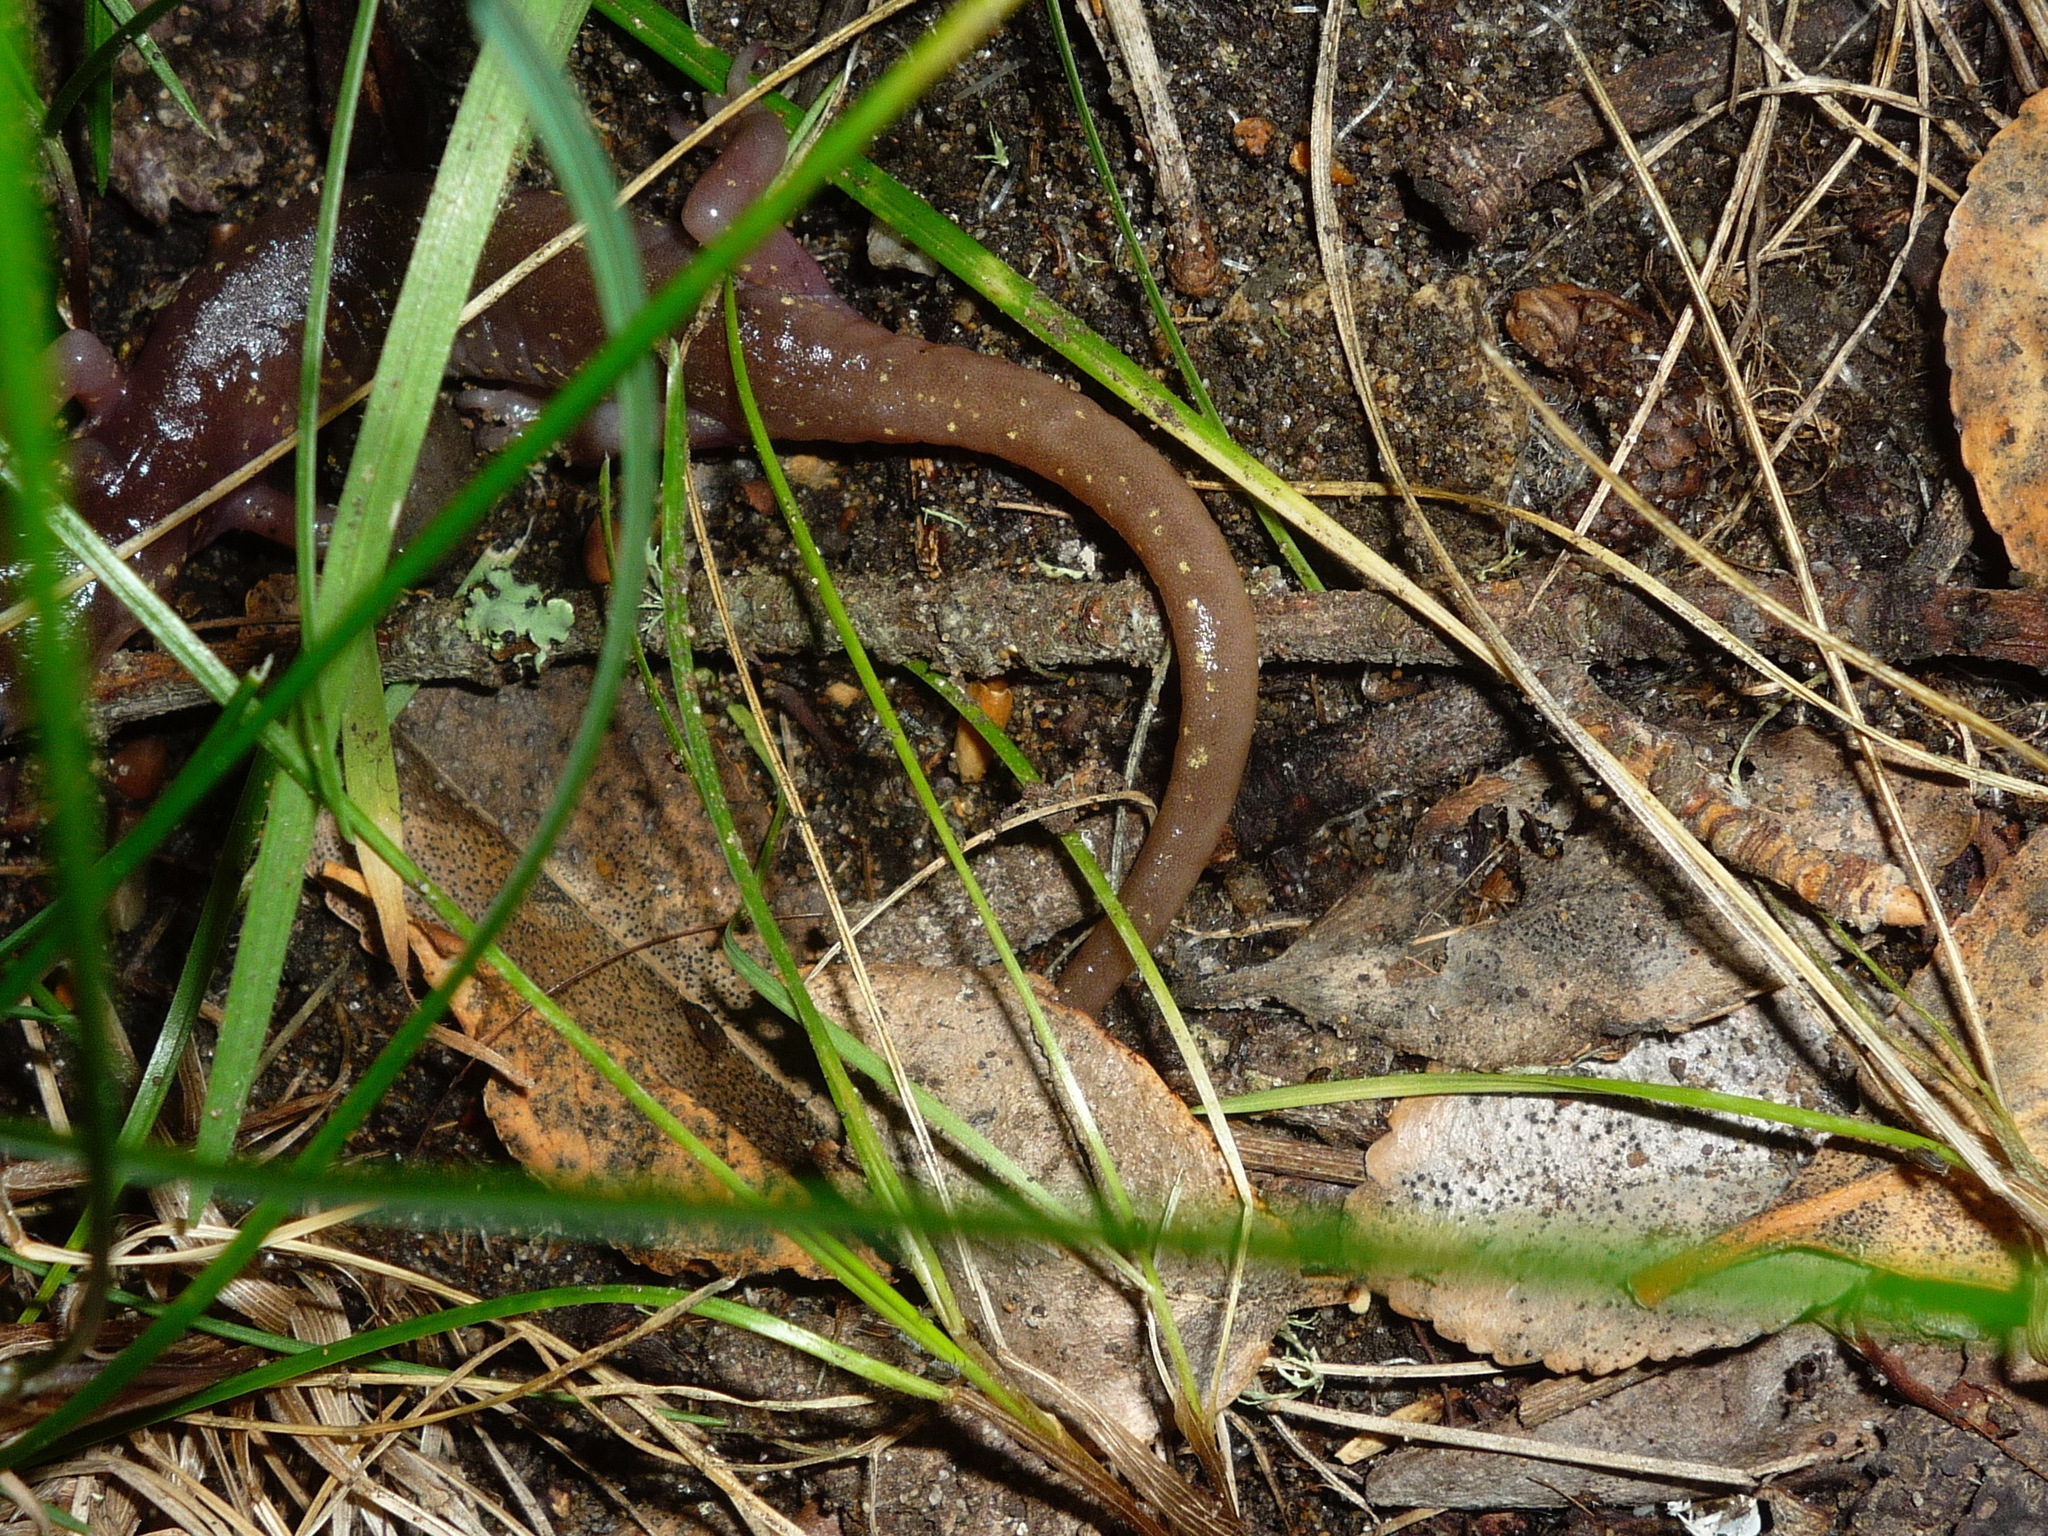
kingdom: Animalia
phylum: Chordata
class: Amphibia
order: Caudata
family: Plethodontidae
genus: Aneides
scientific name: Aneides lugubris
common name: Arboreal salamander
